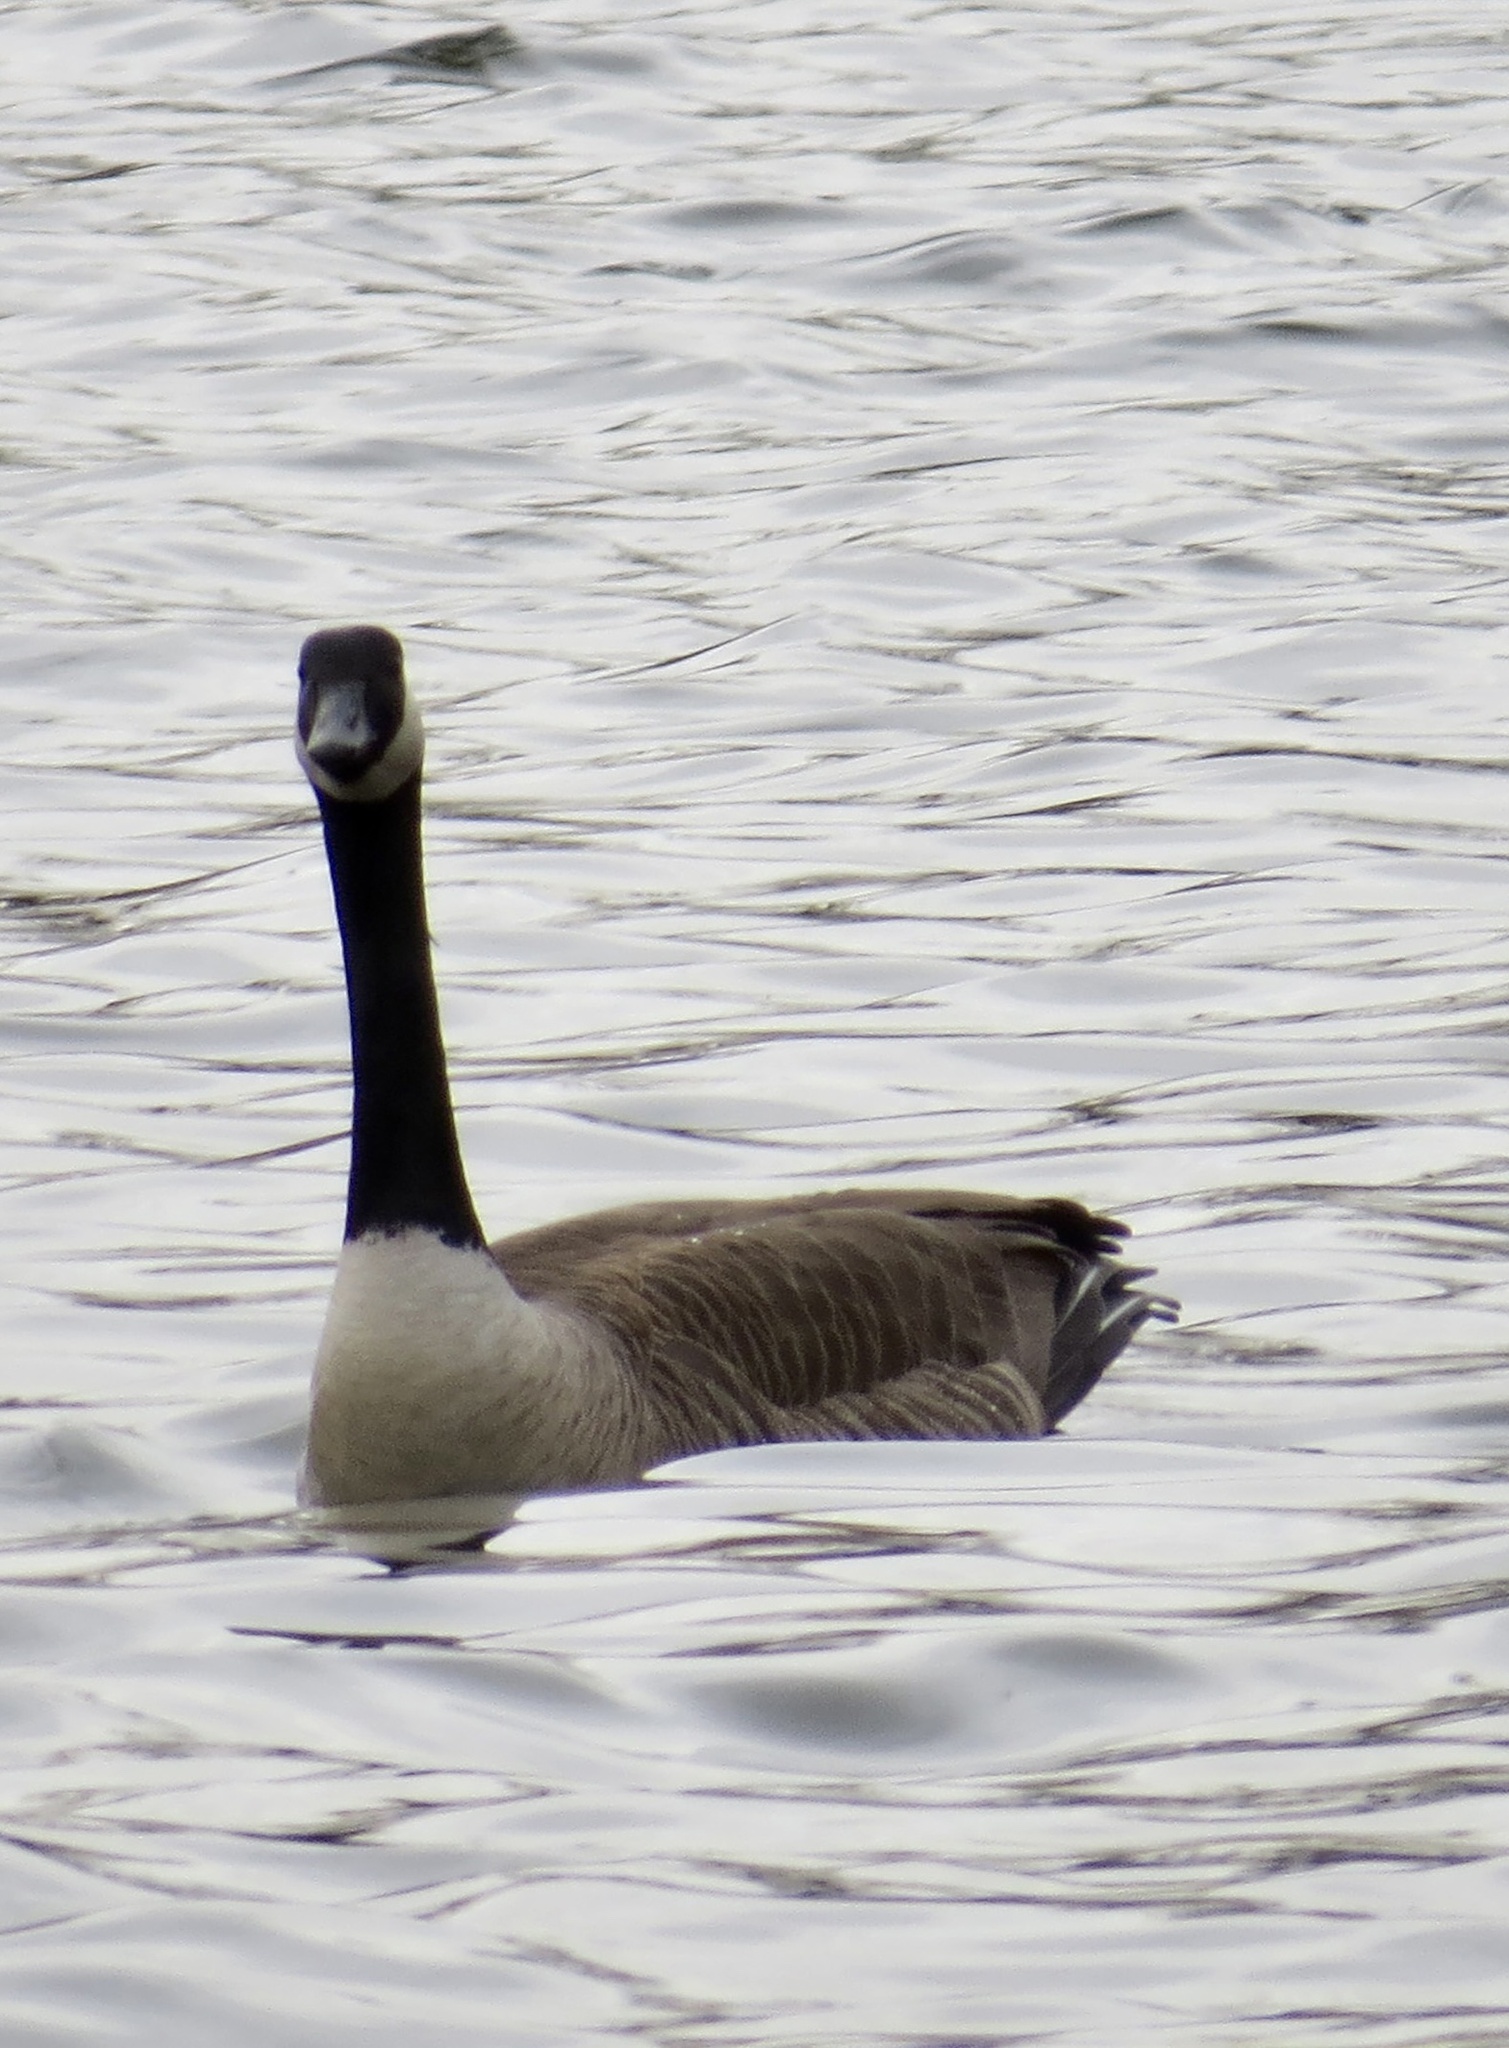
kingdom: Animalia
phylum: Chordata
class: Aves
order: Anseriformes
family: Anatidae
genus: Branta
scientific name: Branta canadensis
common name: Canada goose
